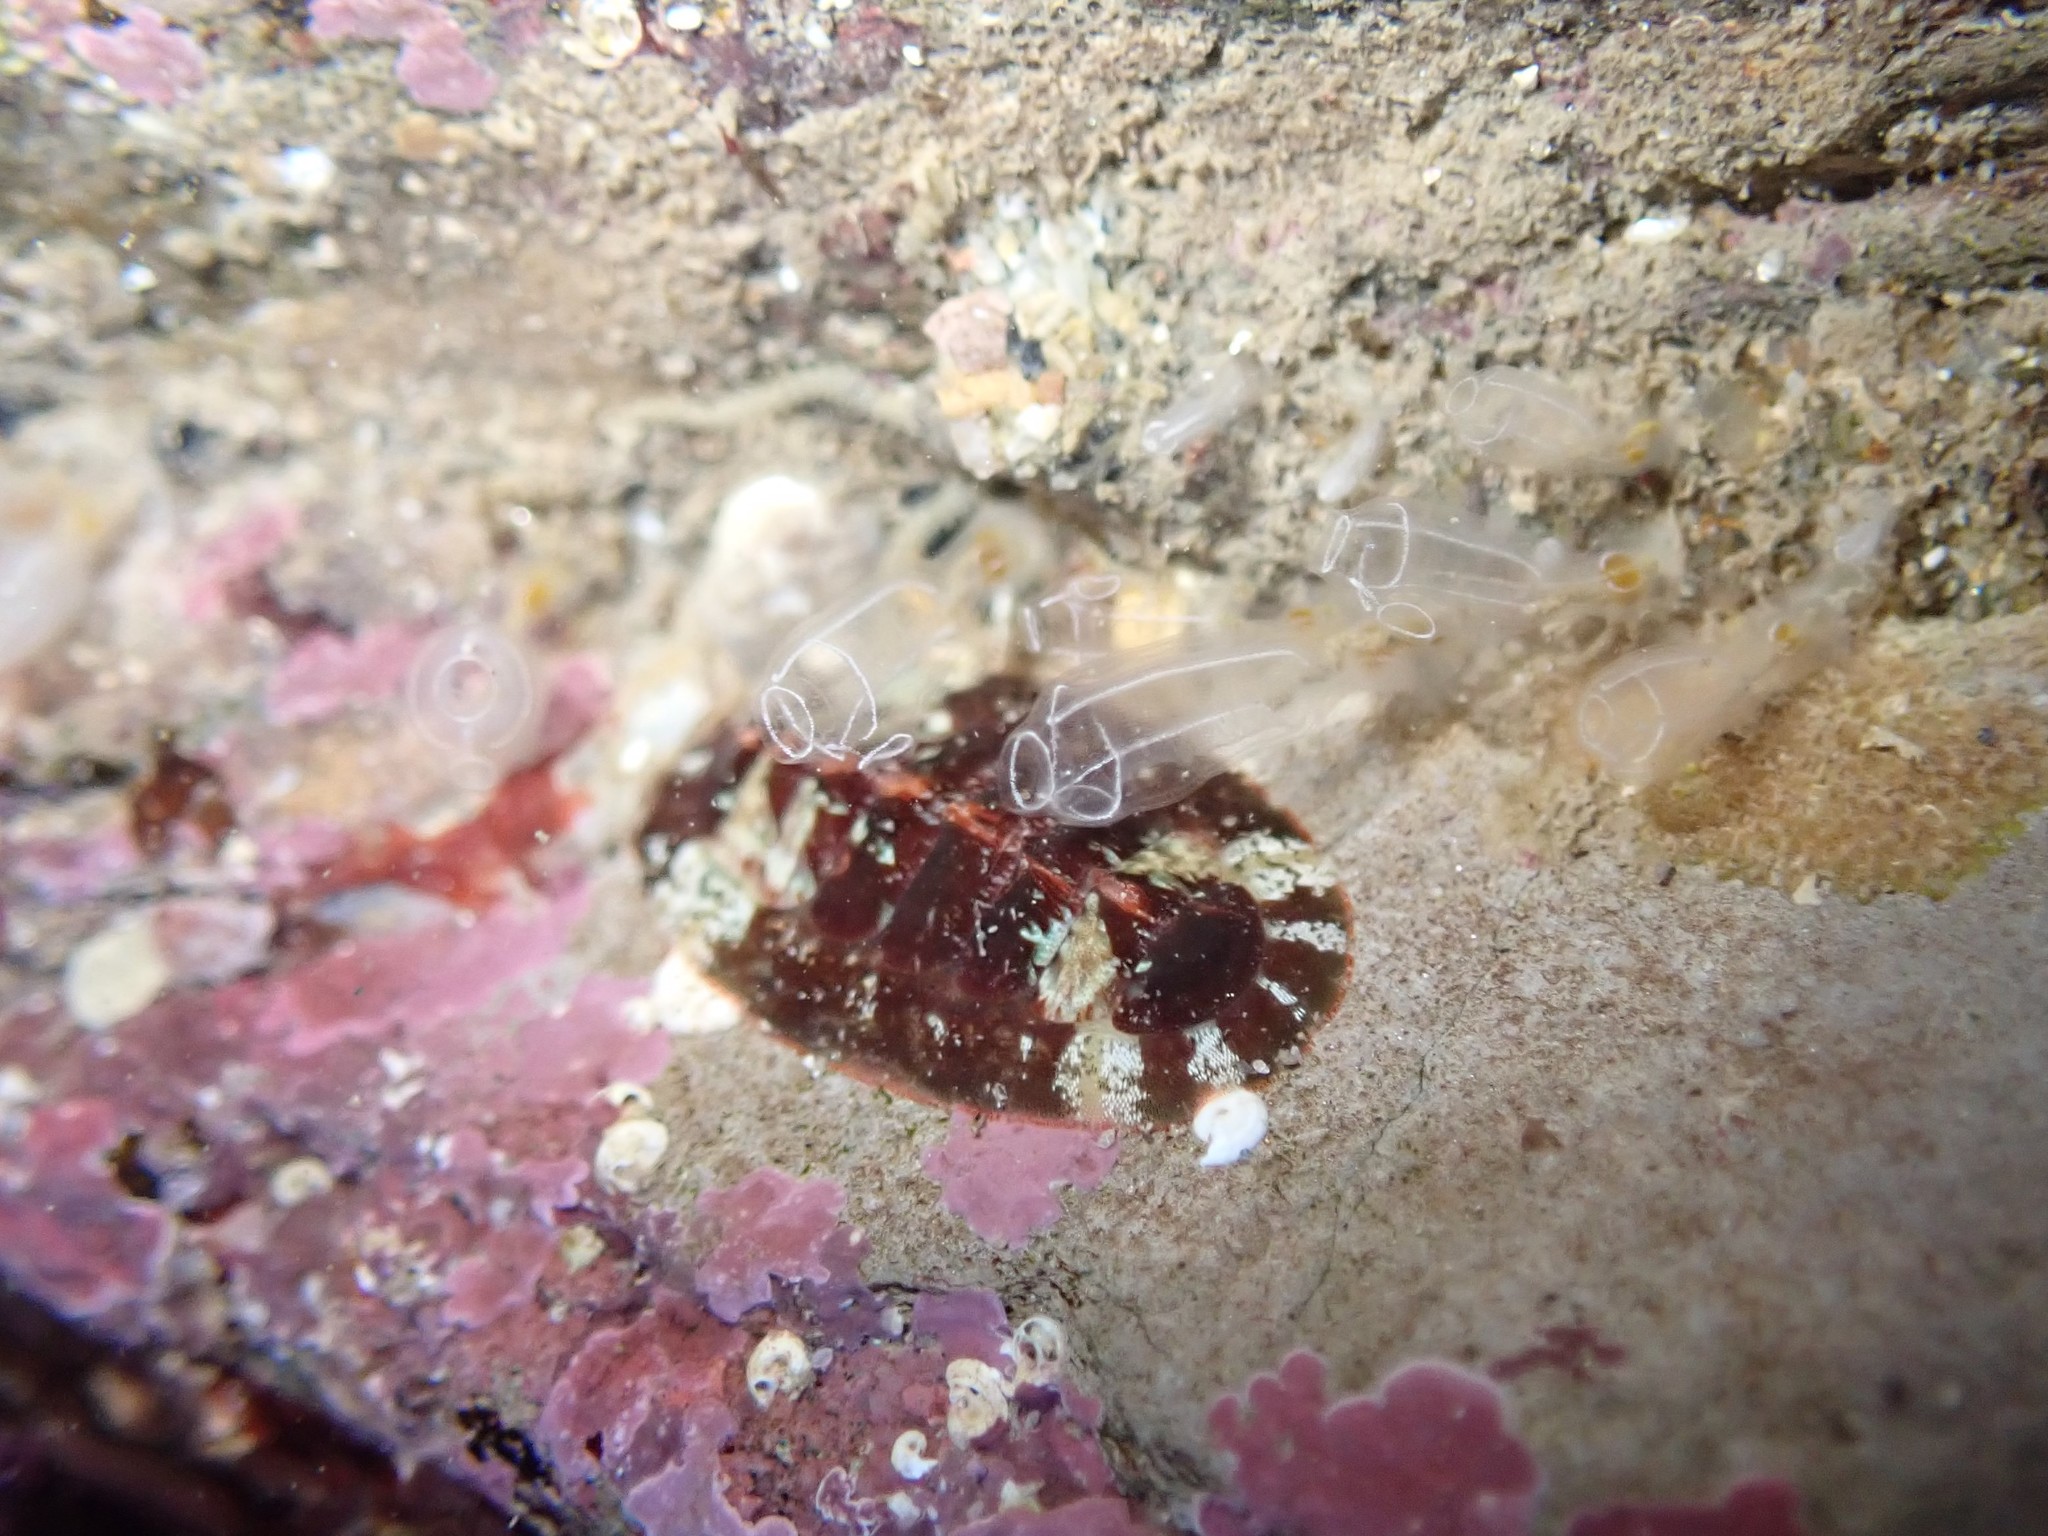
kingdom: Animalia
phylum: Chordata
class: Ascidiacea
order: Aplousobranchia
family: Clavelinidae
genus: Clavelina
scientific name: Clavelina lepadiformis
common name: Light bulb tunicate
